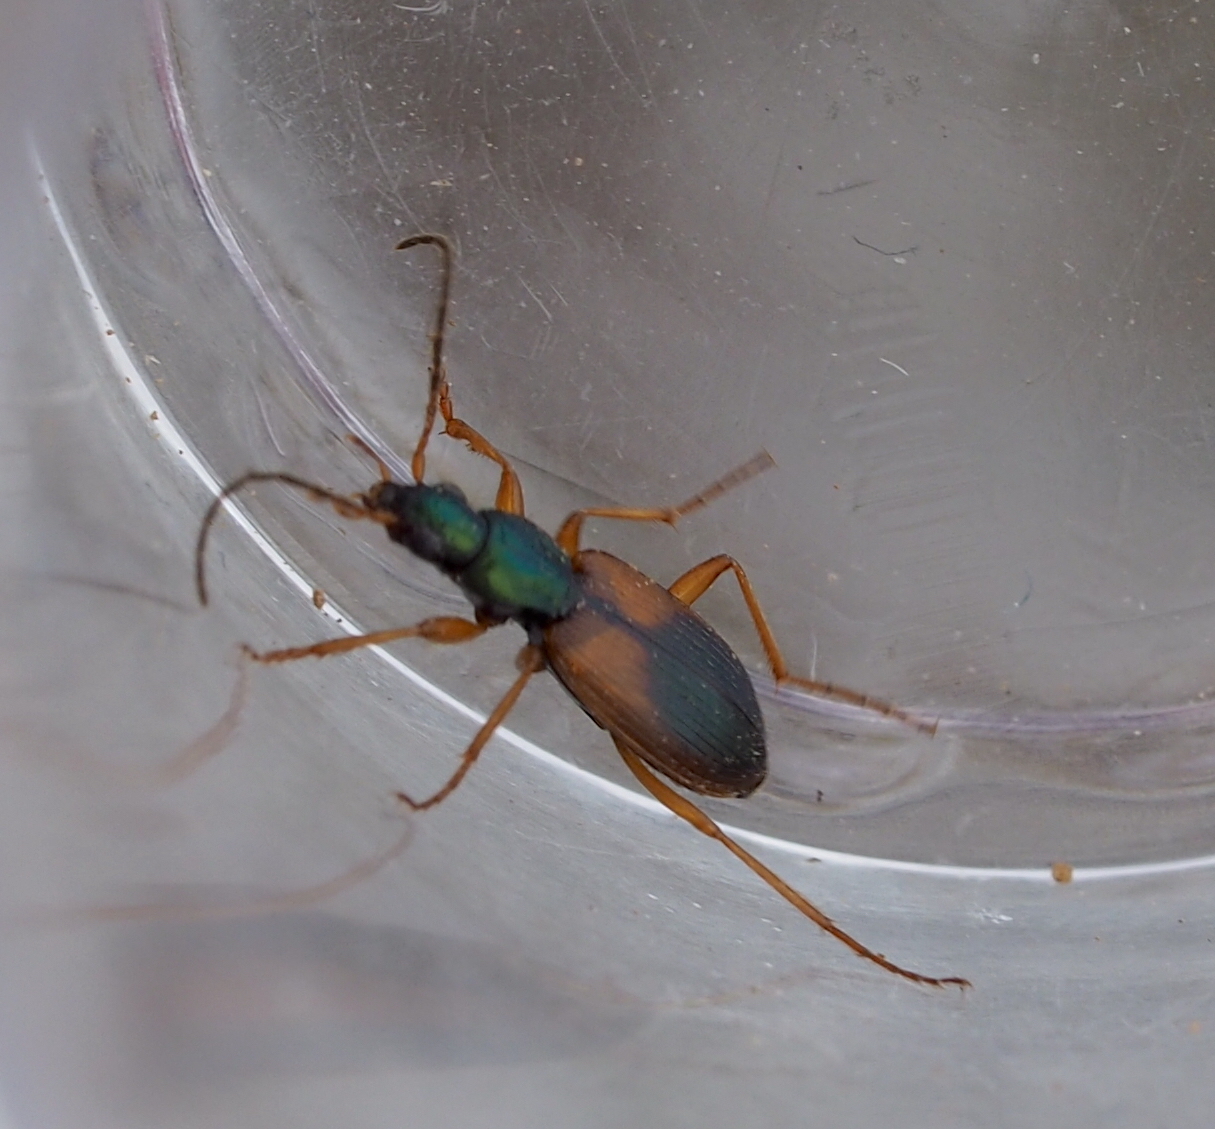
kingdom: Animalia
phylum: Arthropoda
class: Insecta
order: Coleoptera
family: Carabidae
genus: Anchomenus
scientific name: Anchomenus dorsalis
